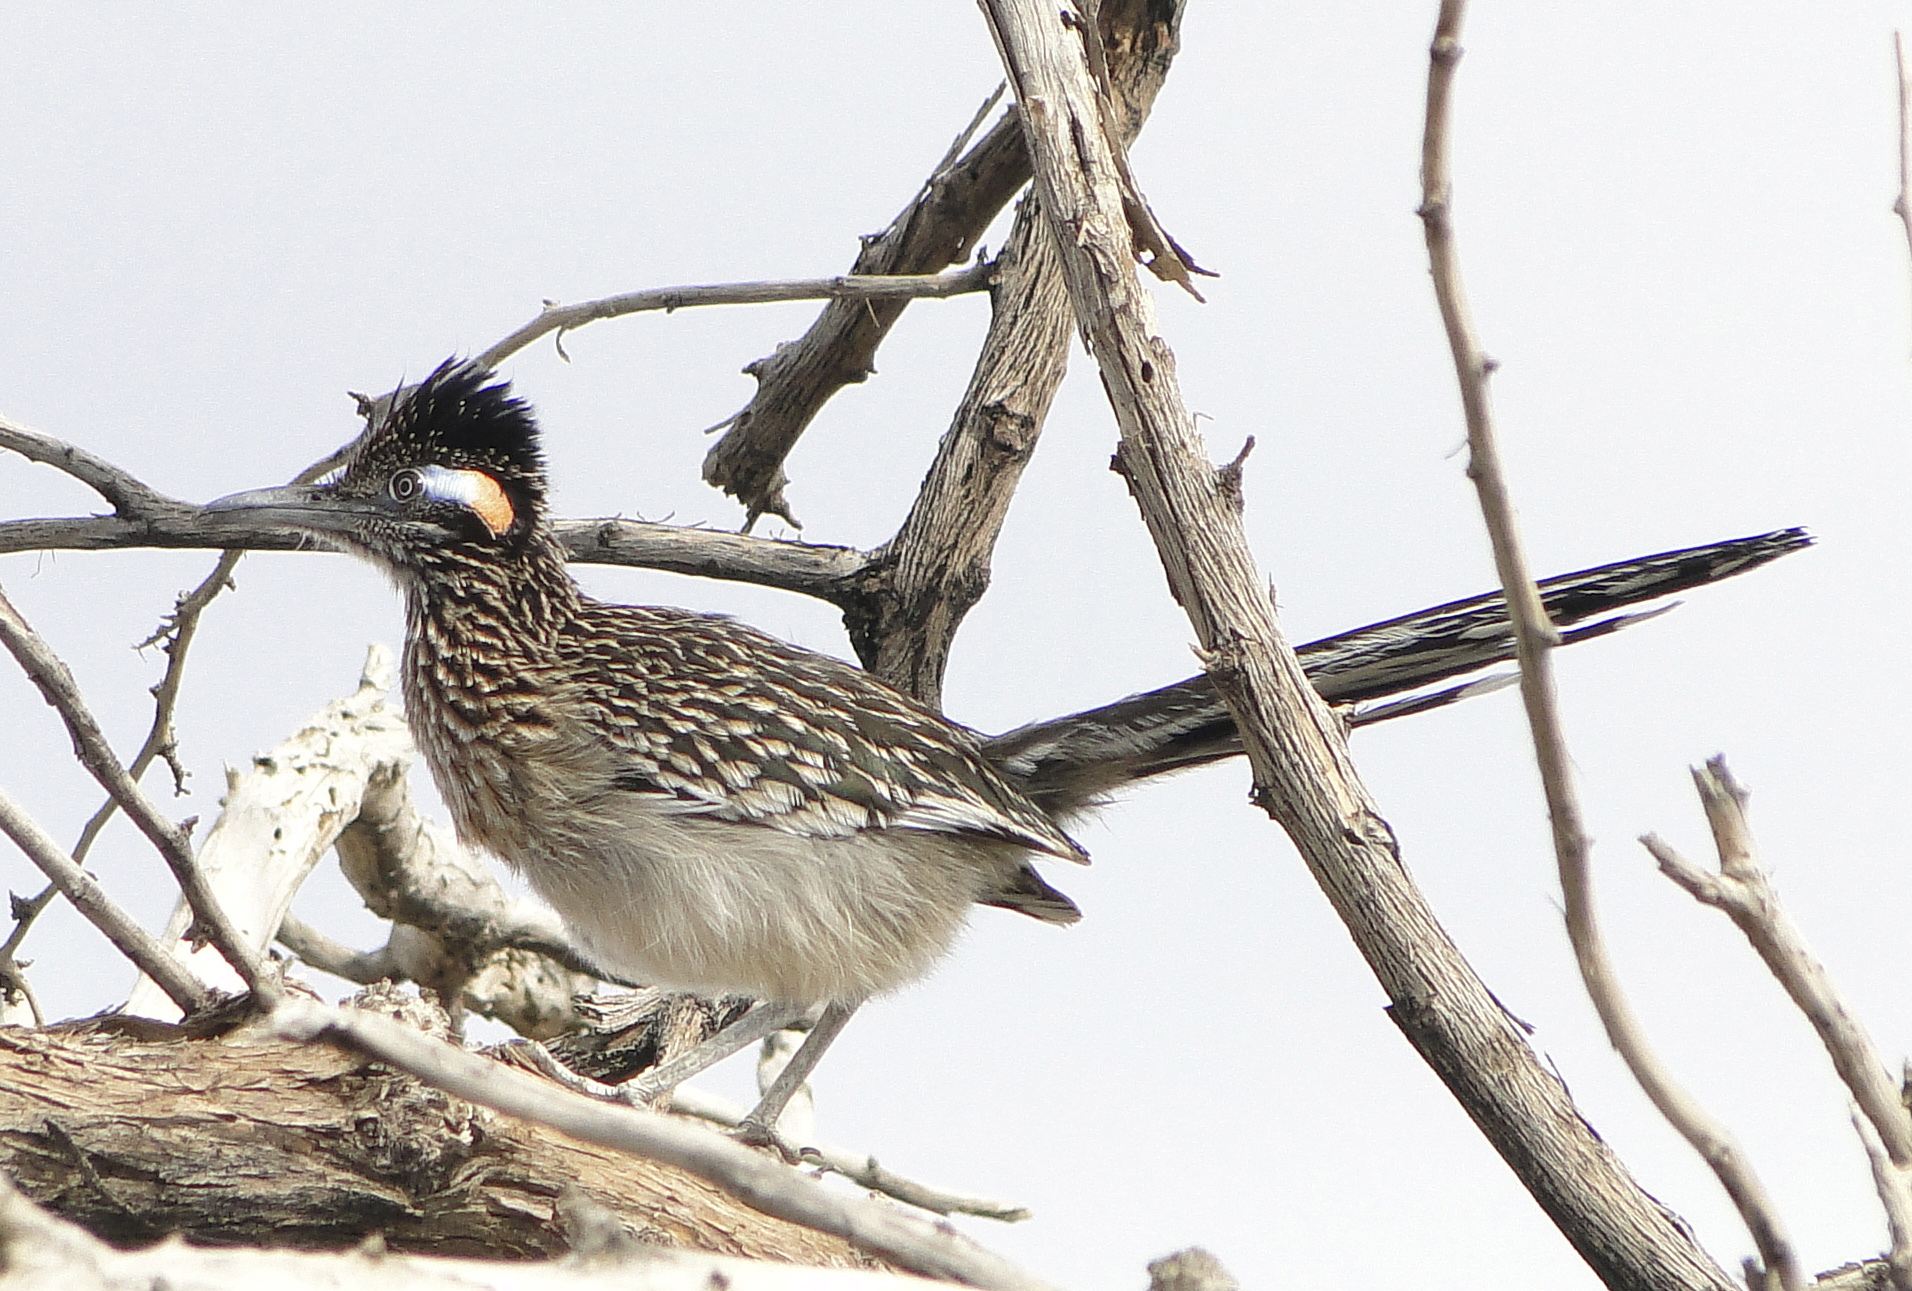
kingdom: Animalia
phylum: Chordata
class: Aves
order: Cuculiformes
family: Cuculidae
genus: Geococcyx
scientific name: Geococcyx californianus
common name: Greater roadrunner
